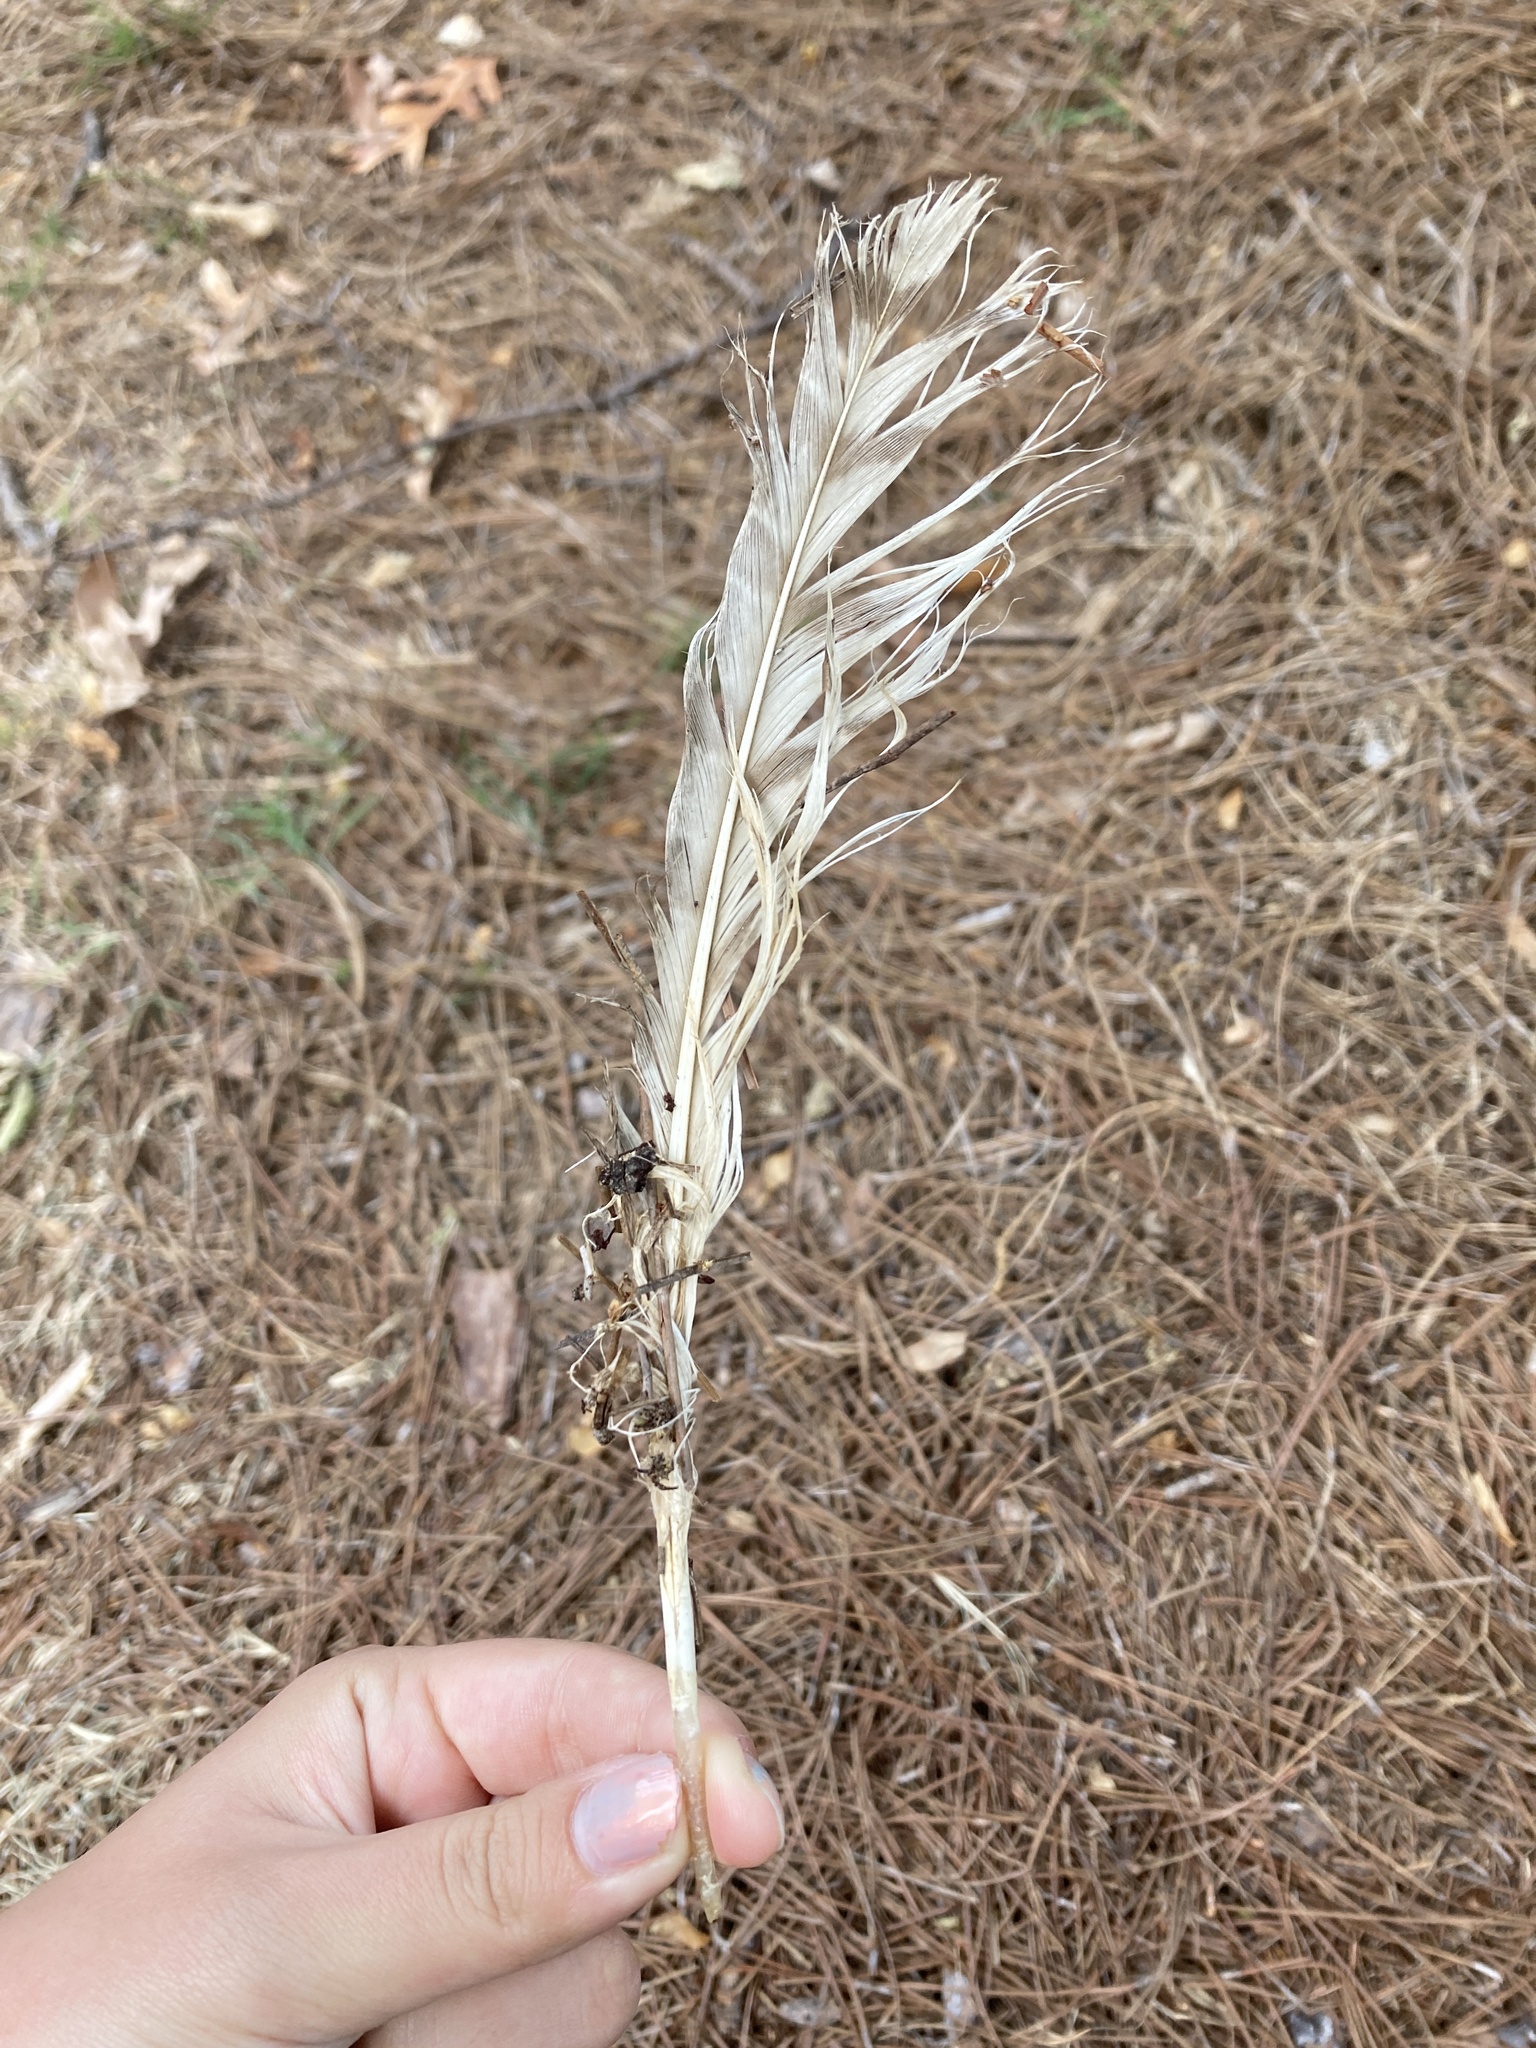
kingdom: Animalia
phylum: Chordata
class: Aves
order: Strigiformes
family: Strigidae
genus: Bubo
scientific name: Bubo virginianus
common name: Great horned owl
